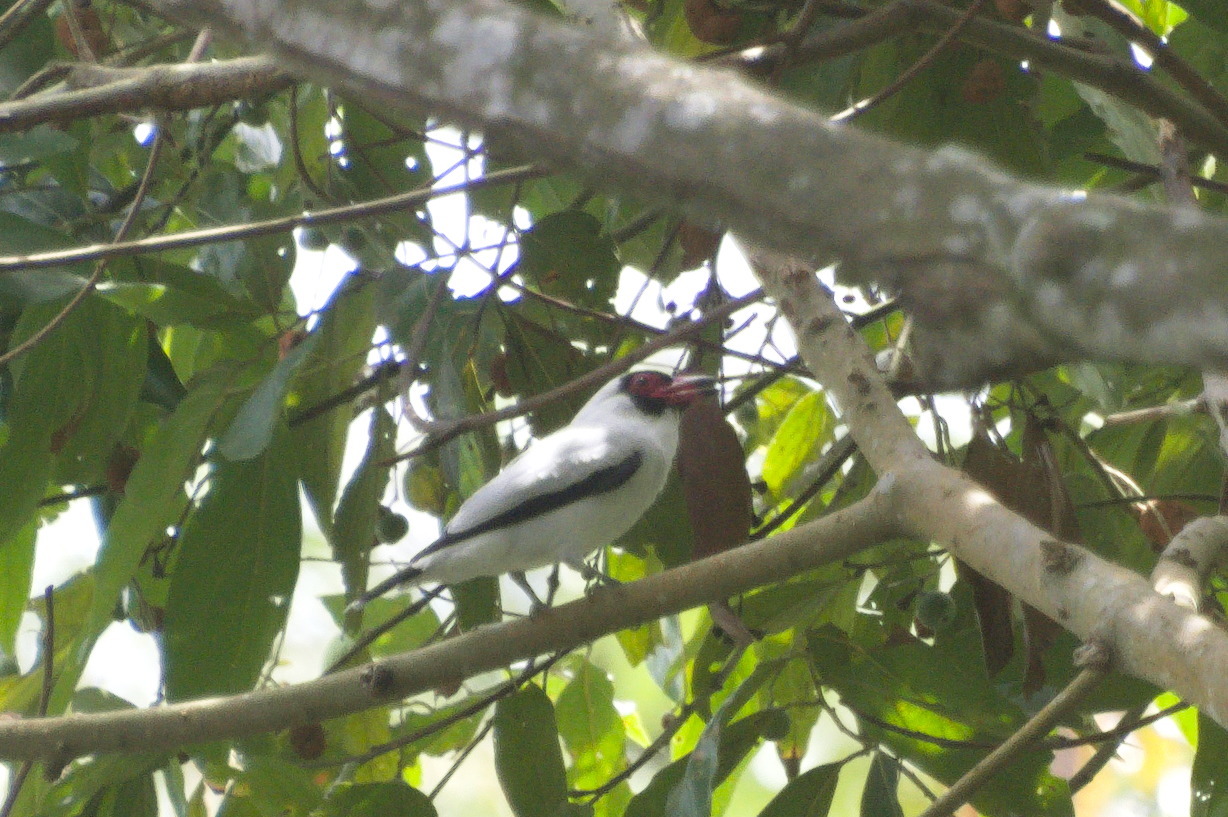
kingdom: Animalia
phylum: Chordata
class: Aves
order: Passeriformes
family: Cotingidae
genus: Tityra
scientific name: Tityra semifasciata
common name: Masked tityra
